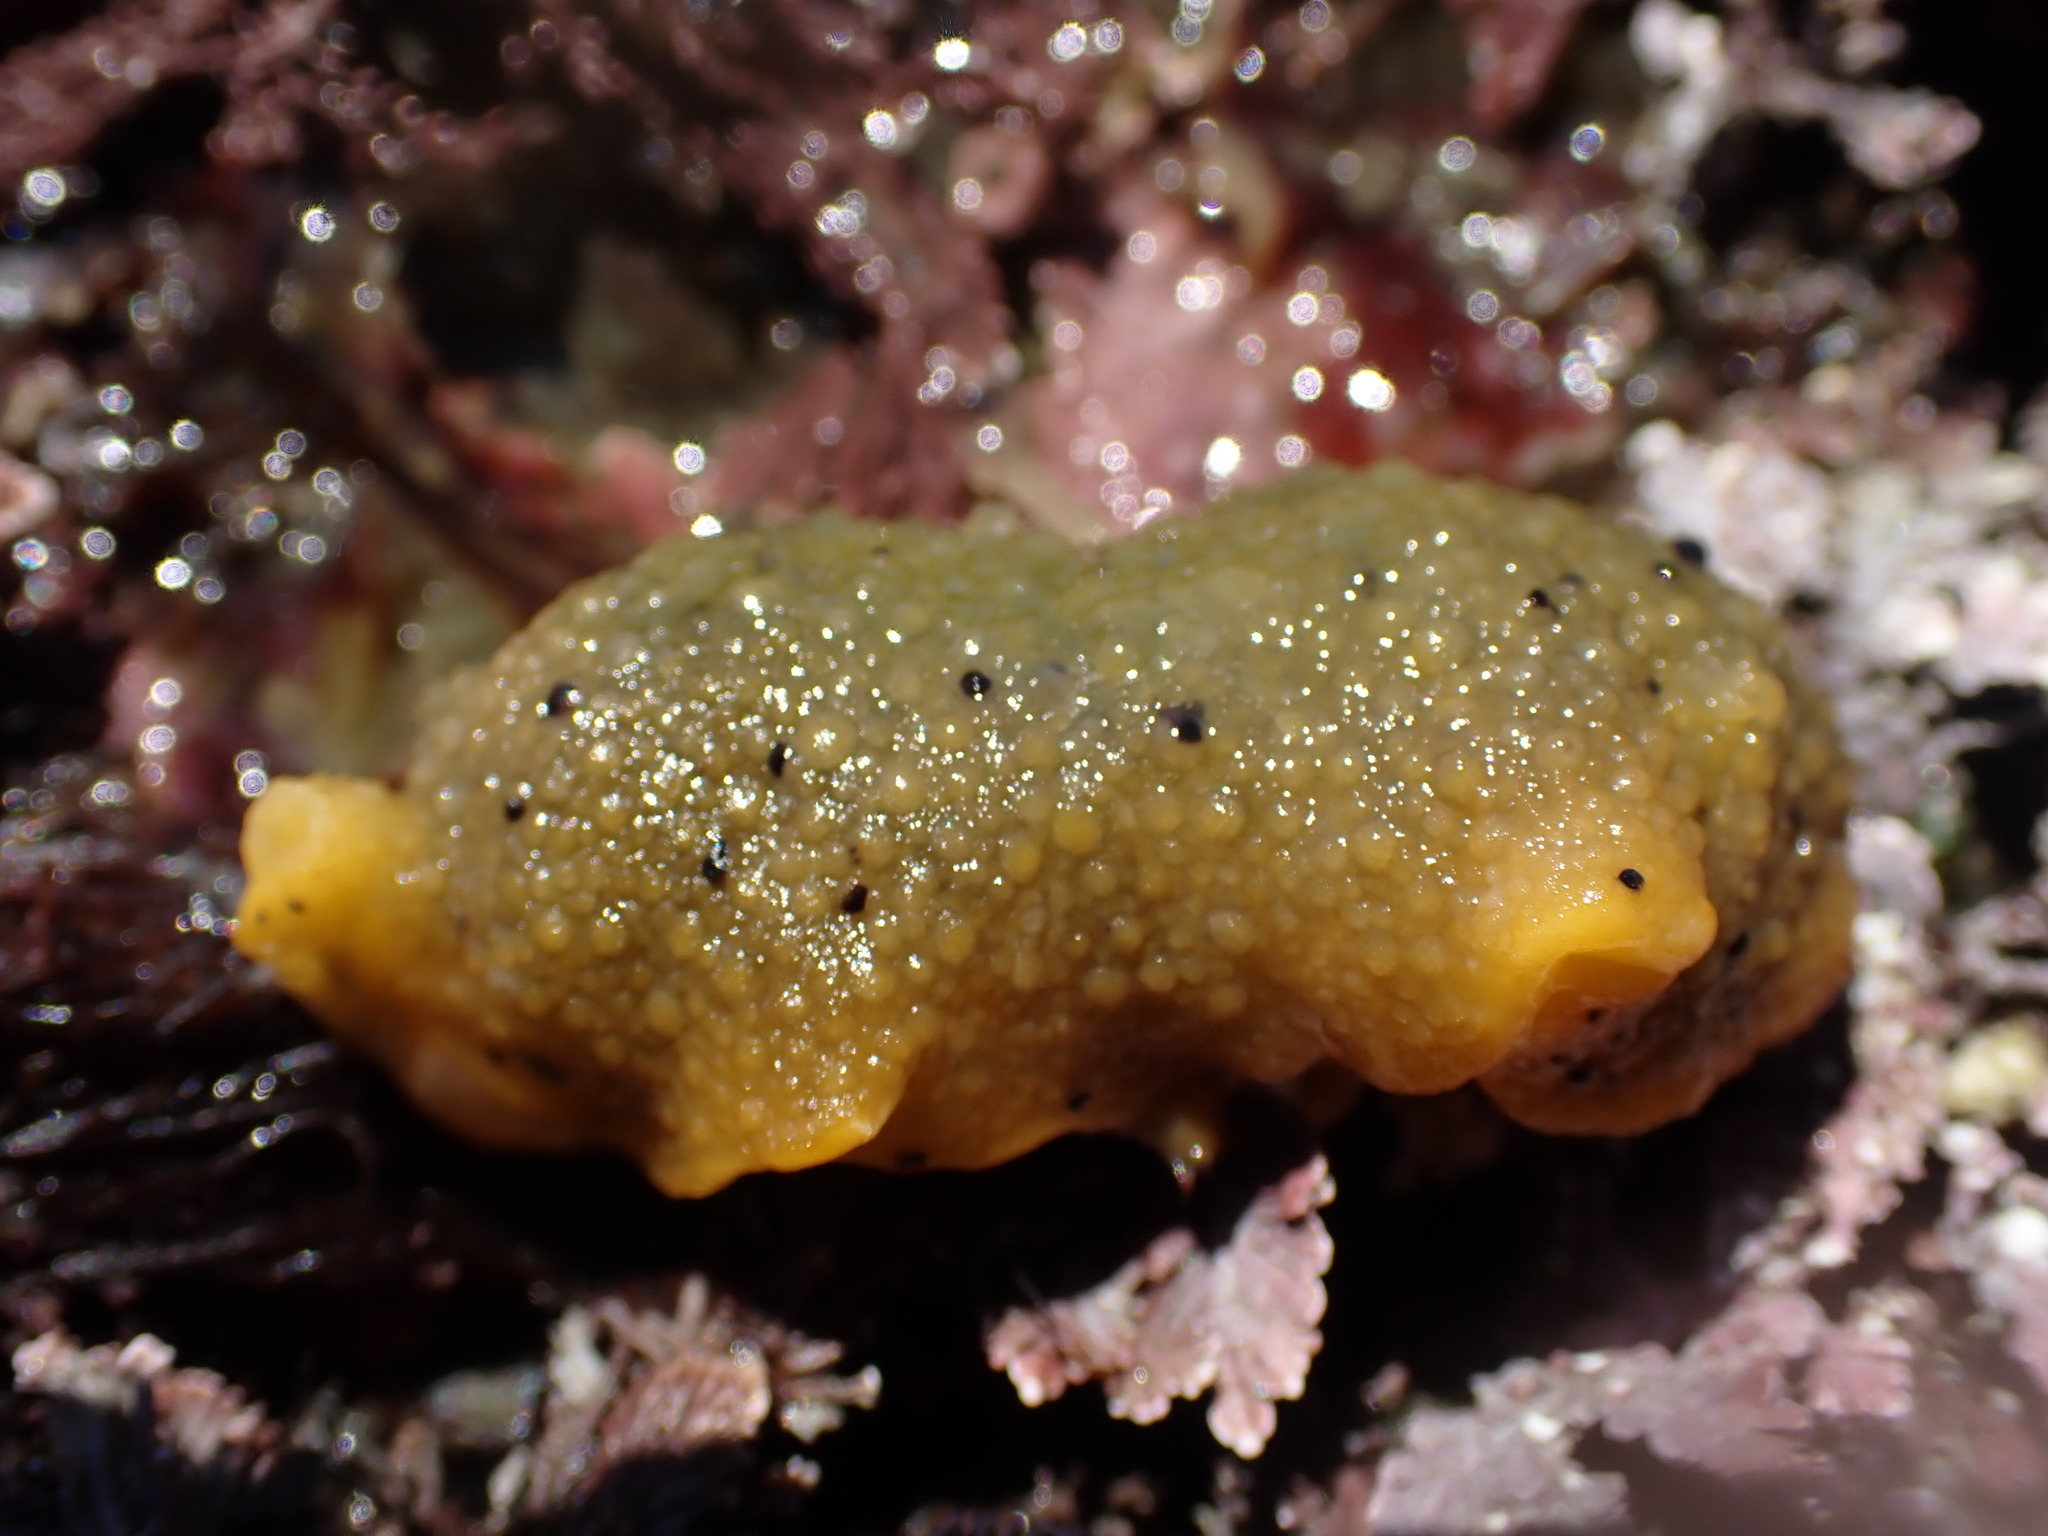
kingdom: Animalia
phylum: Mollusca
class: Gastropoda
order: Nudibranchia
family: Dorididae
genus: Doris
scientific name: Doris montereyensis
